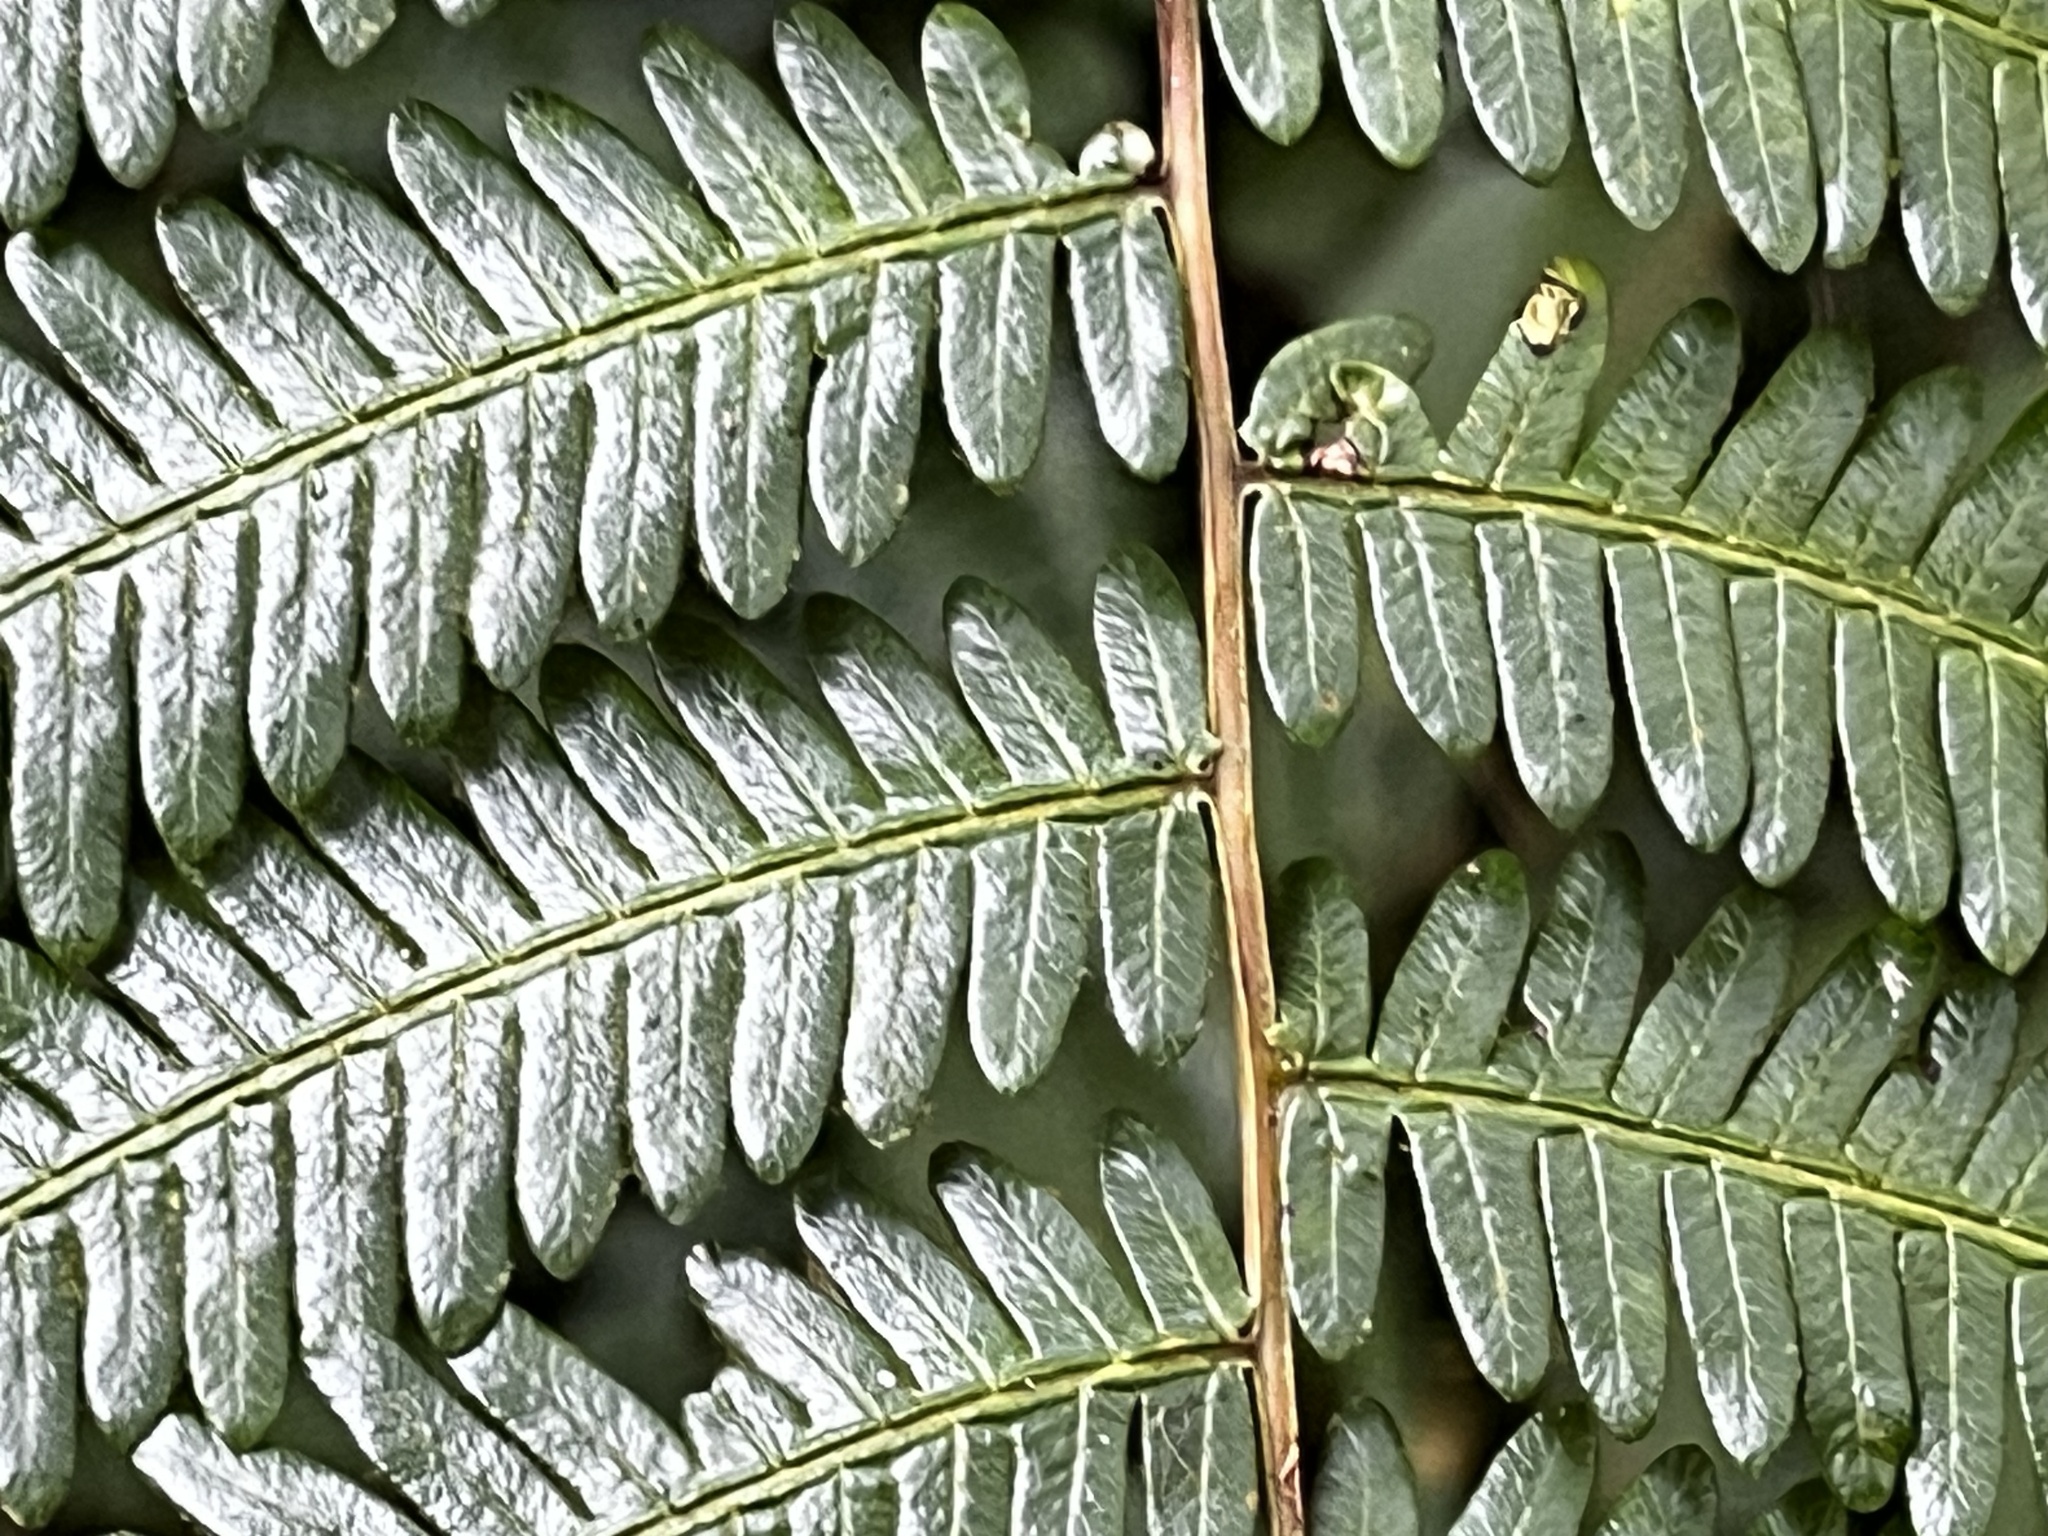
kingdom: Plantae
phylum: Tracheophyta
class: Polypodiopsida
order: Gleicheniales
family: Gleicheniaceae
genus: Diplopterygium
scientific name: Diplopterygium glaucum
